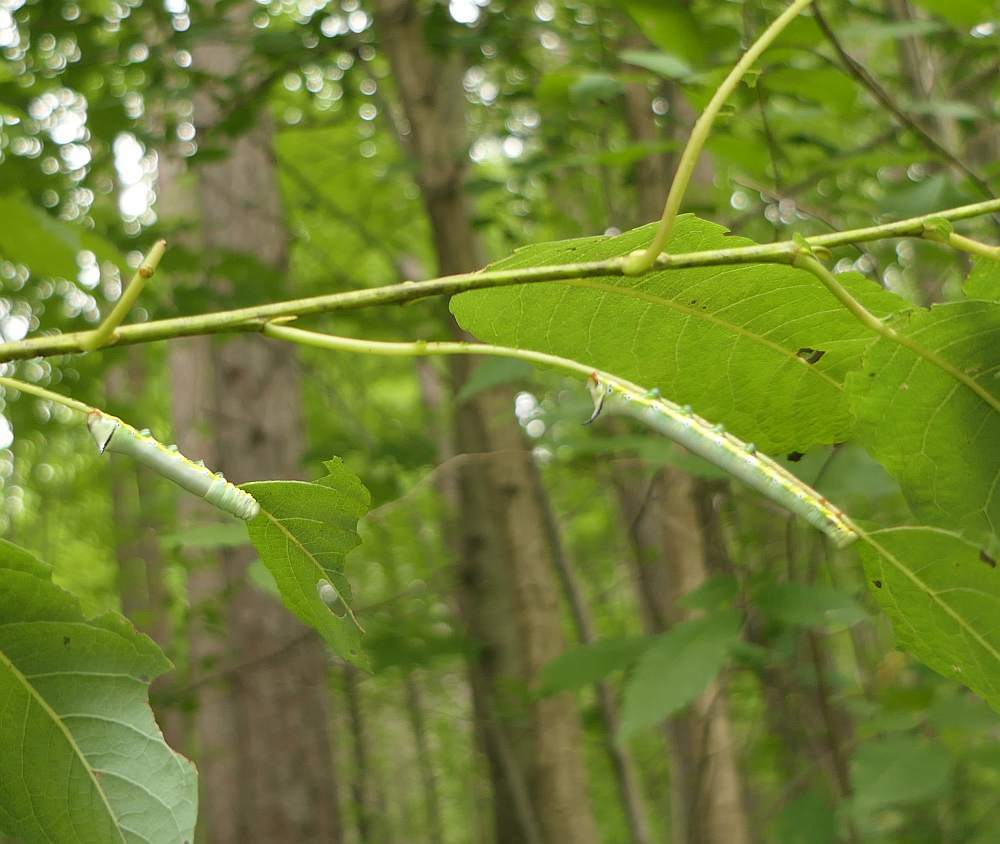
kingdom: Animalia
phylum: Arthropoda
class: Insecta
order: Lepidoptera
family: Notodontidae
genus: Pheosia
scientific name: Pheosia rimosa
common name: Black-rimmed prominent
